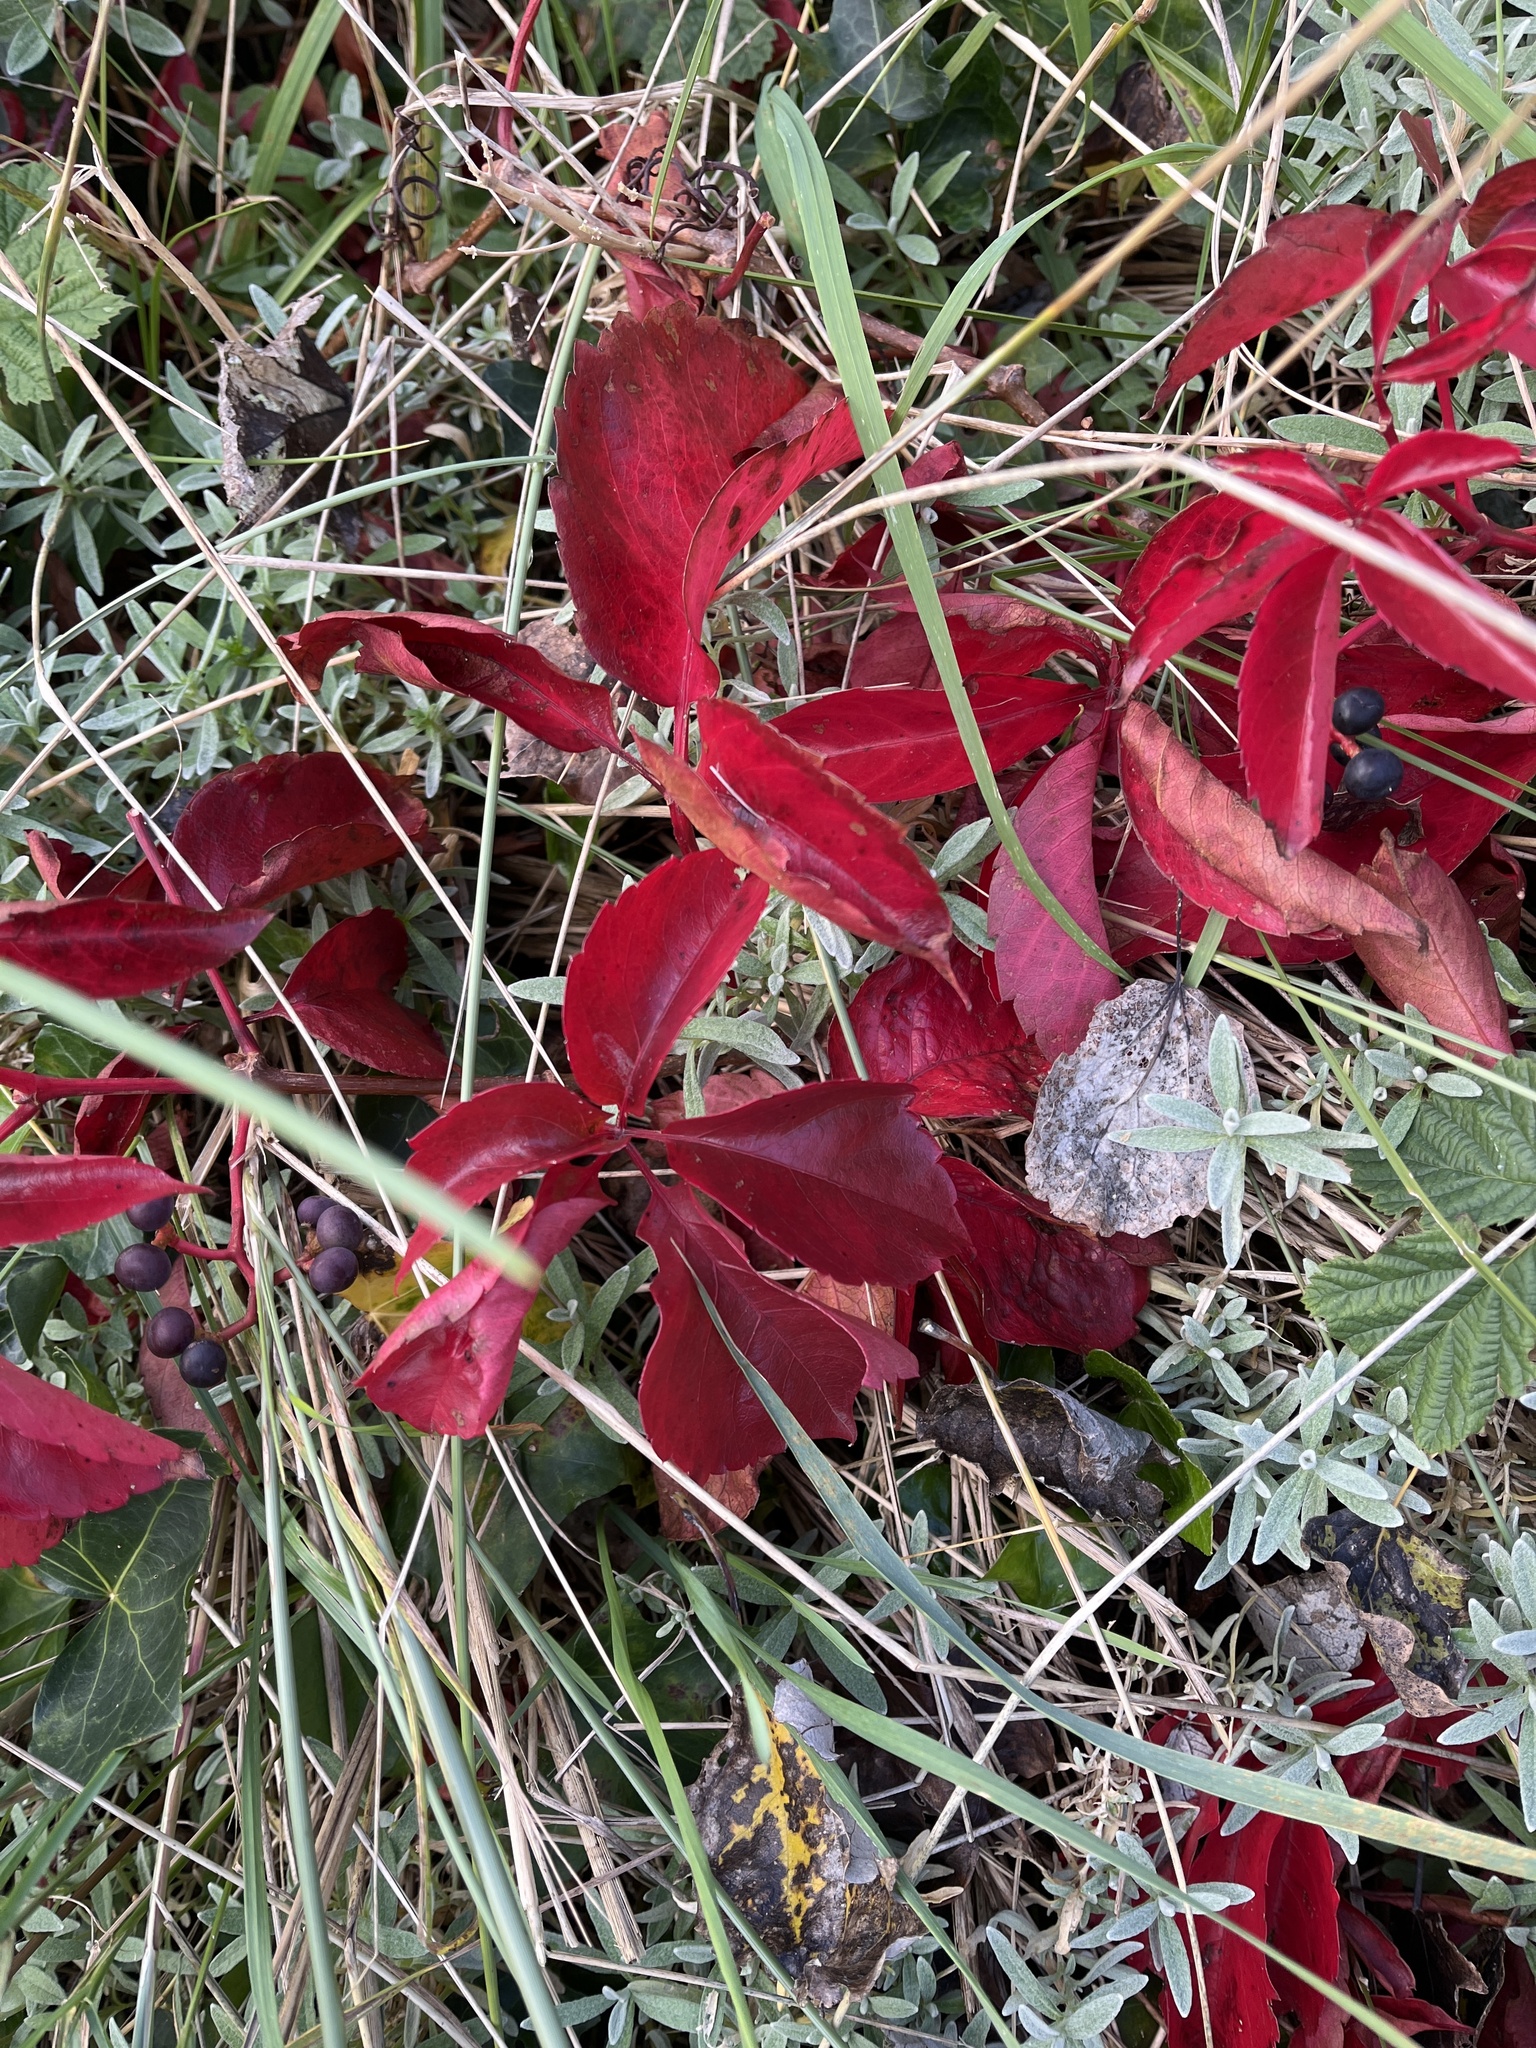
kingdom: Plantae
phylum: Tracheophyta
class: Magnoliopsida
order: Vitales
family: Vitaceae
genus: Parthenocissus
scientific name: Parthenocissus quinquefolia
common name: Virginia-creeper
